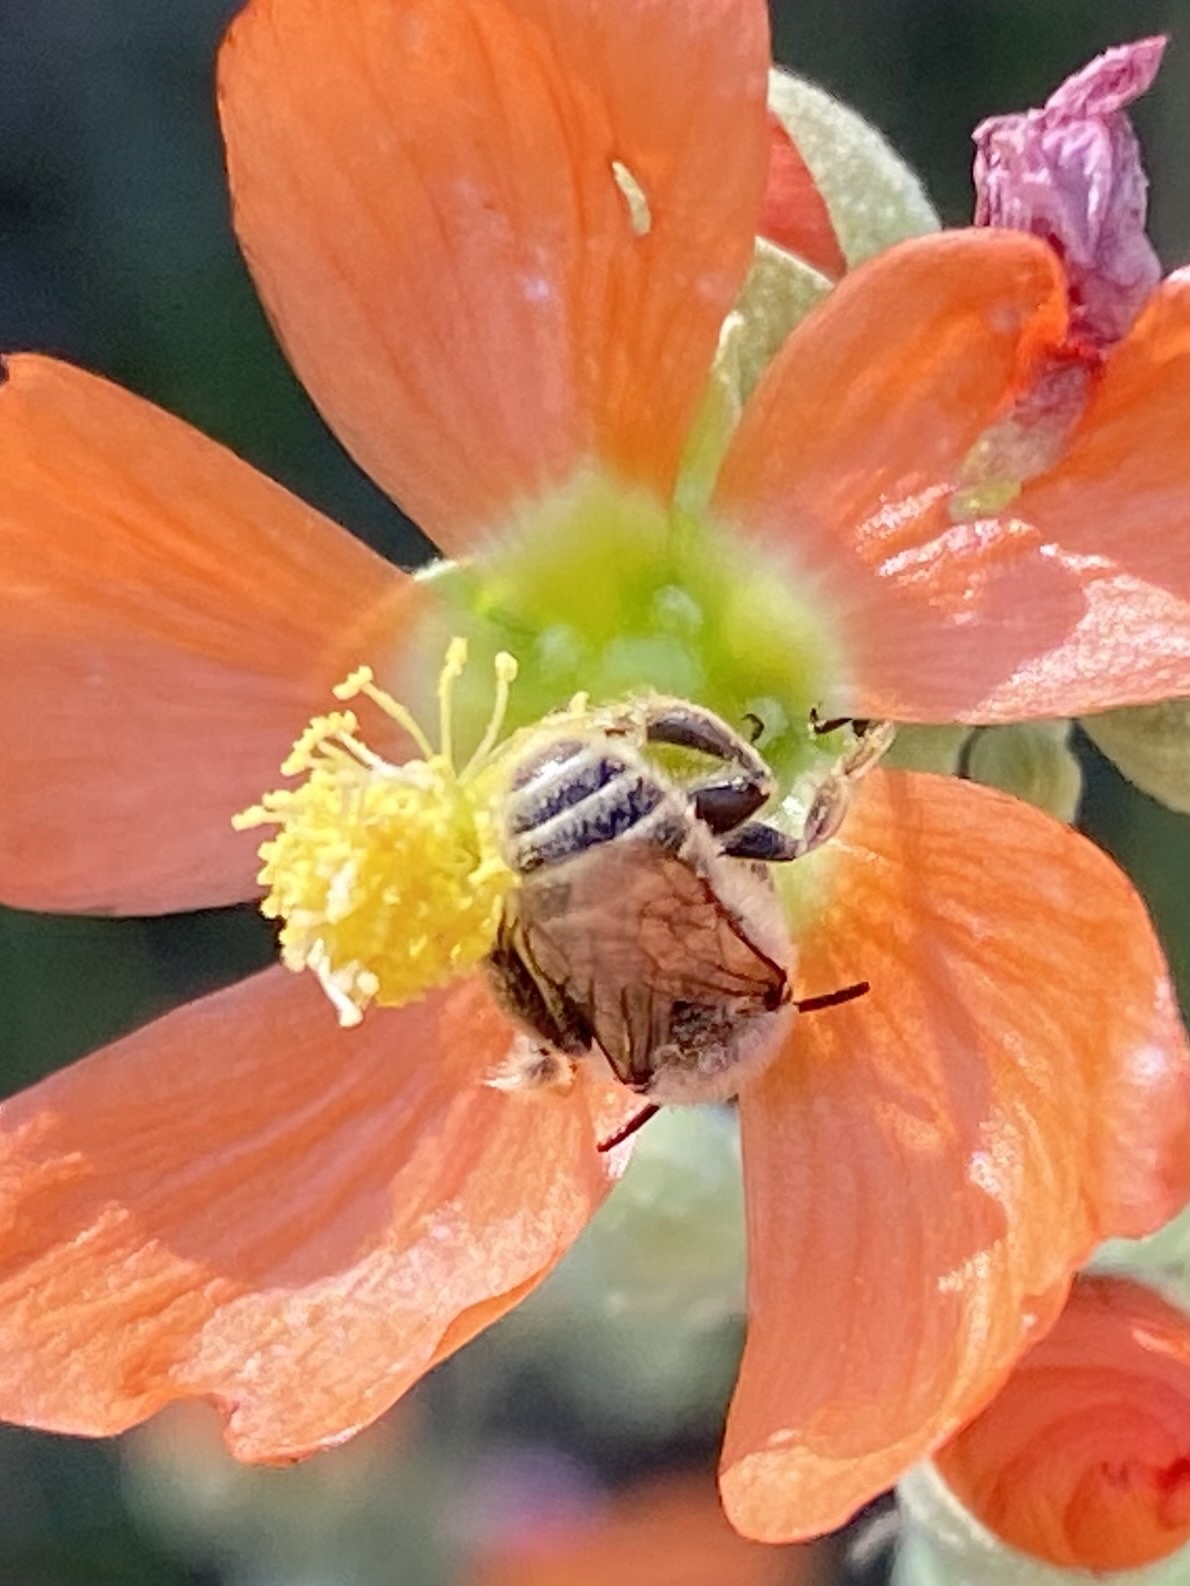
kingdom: Animalia
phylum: Arthropoda
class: Insecta
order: Hymenoptera
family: Apidae
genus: Diadasia
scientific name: Diadasia
